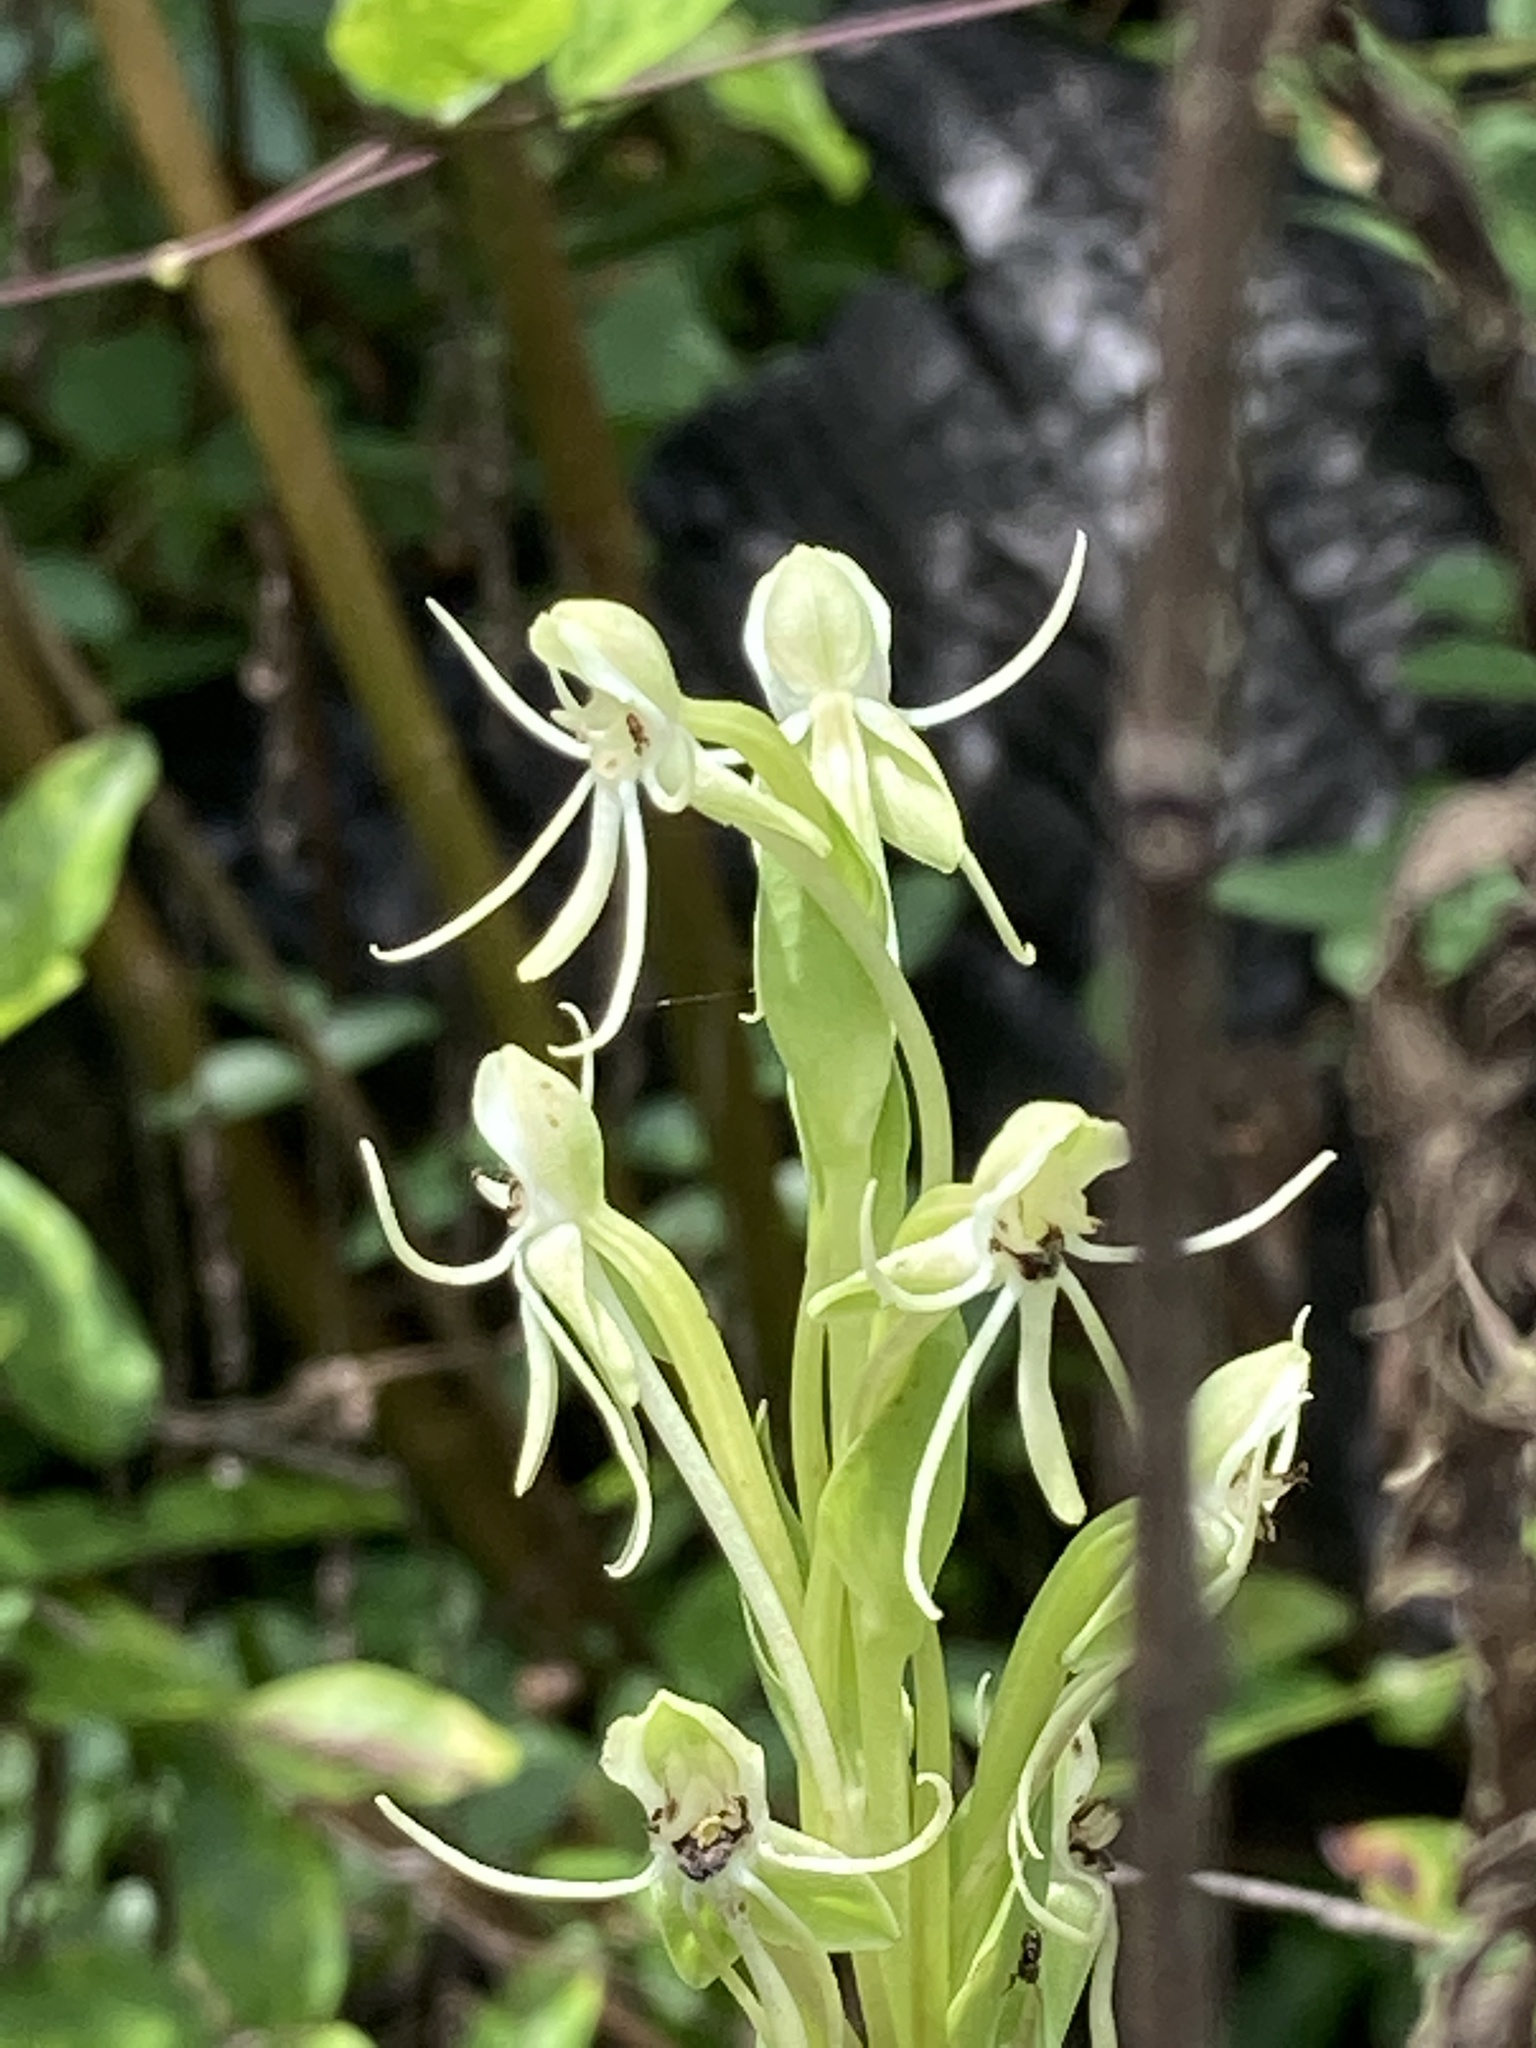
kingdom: Plantae
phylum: Tracheophyta
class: Liliopsida
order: Asparagales
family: Orchidaceae
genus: Habenaria
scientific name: Habenaria quinqueseta
